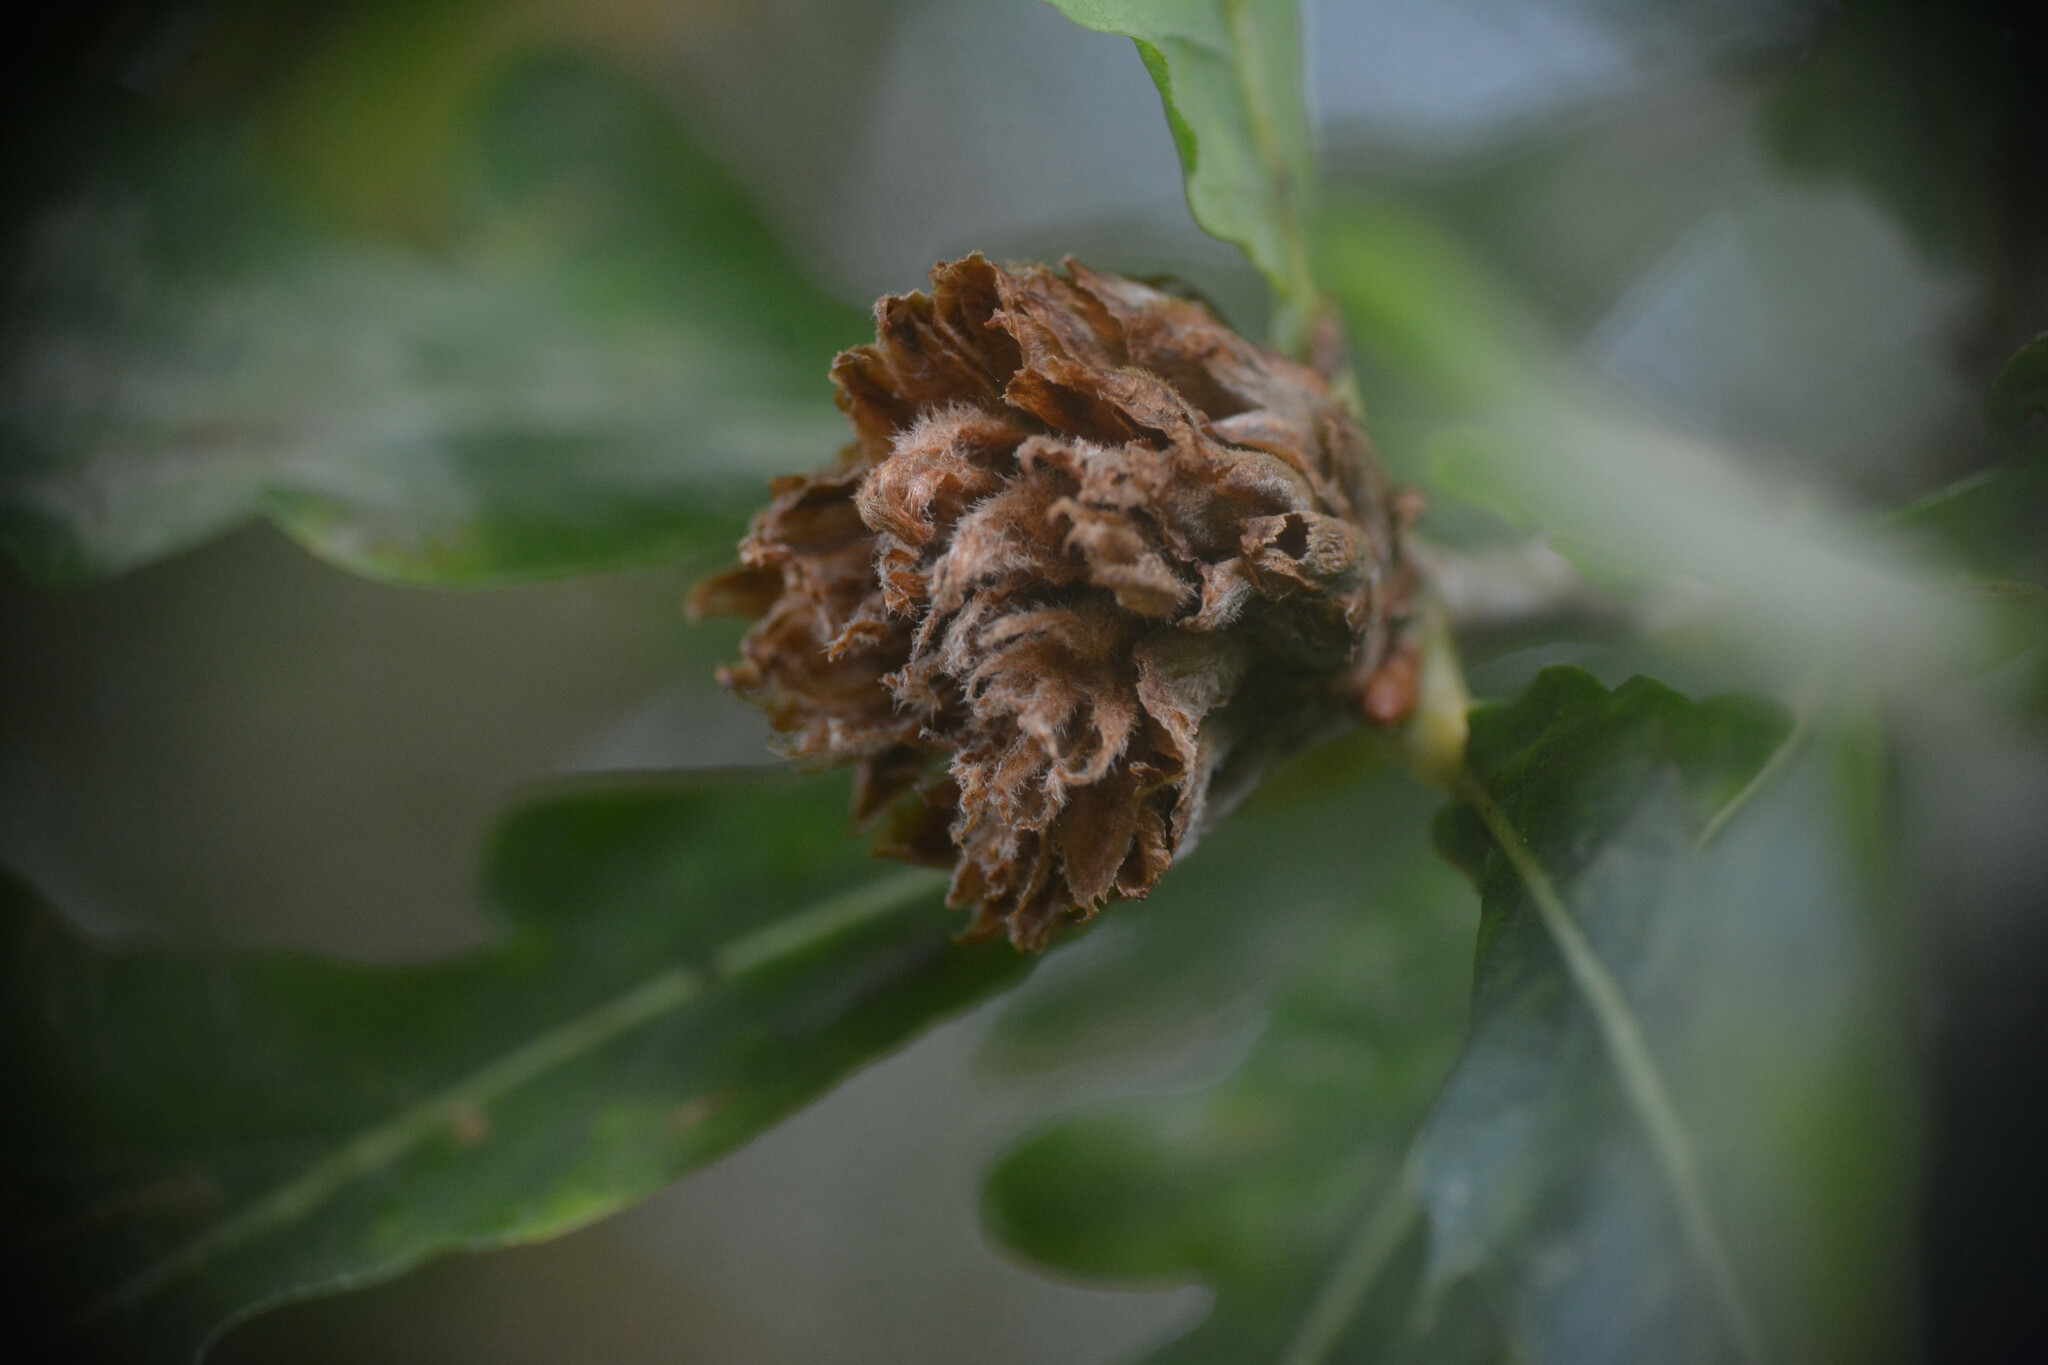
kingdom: Animalia
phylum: Arthropoda
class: Insecta
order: Hymenoptera
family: Cynipidae
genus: Andricus
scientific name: Andricus foecundatrix
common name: Artichoke gall
